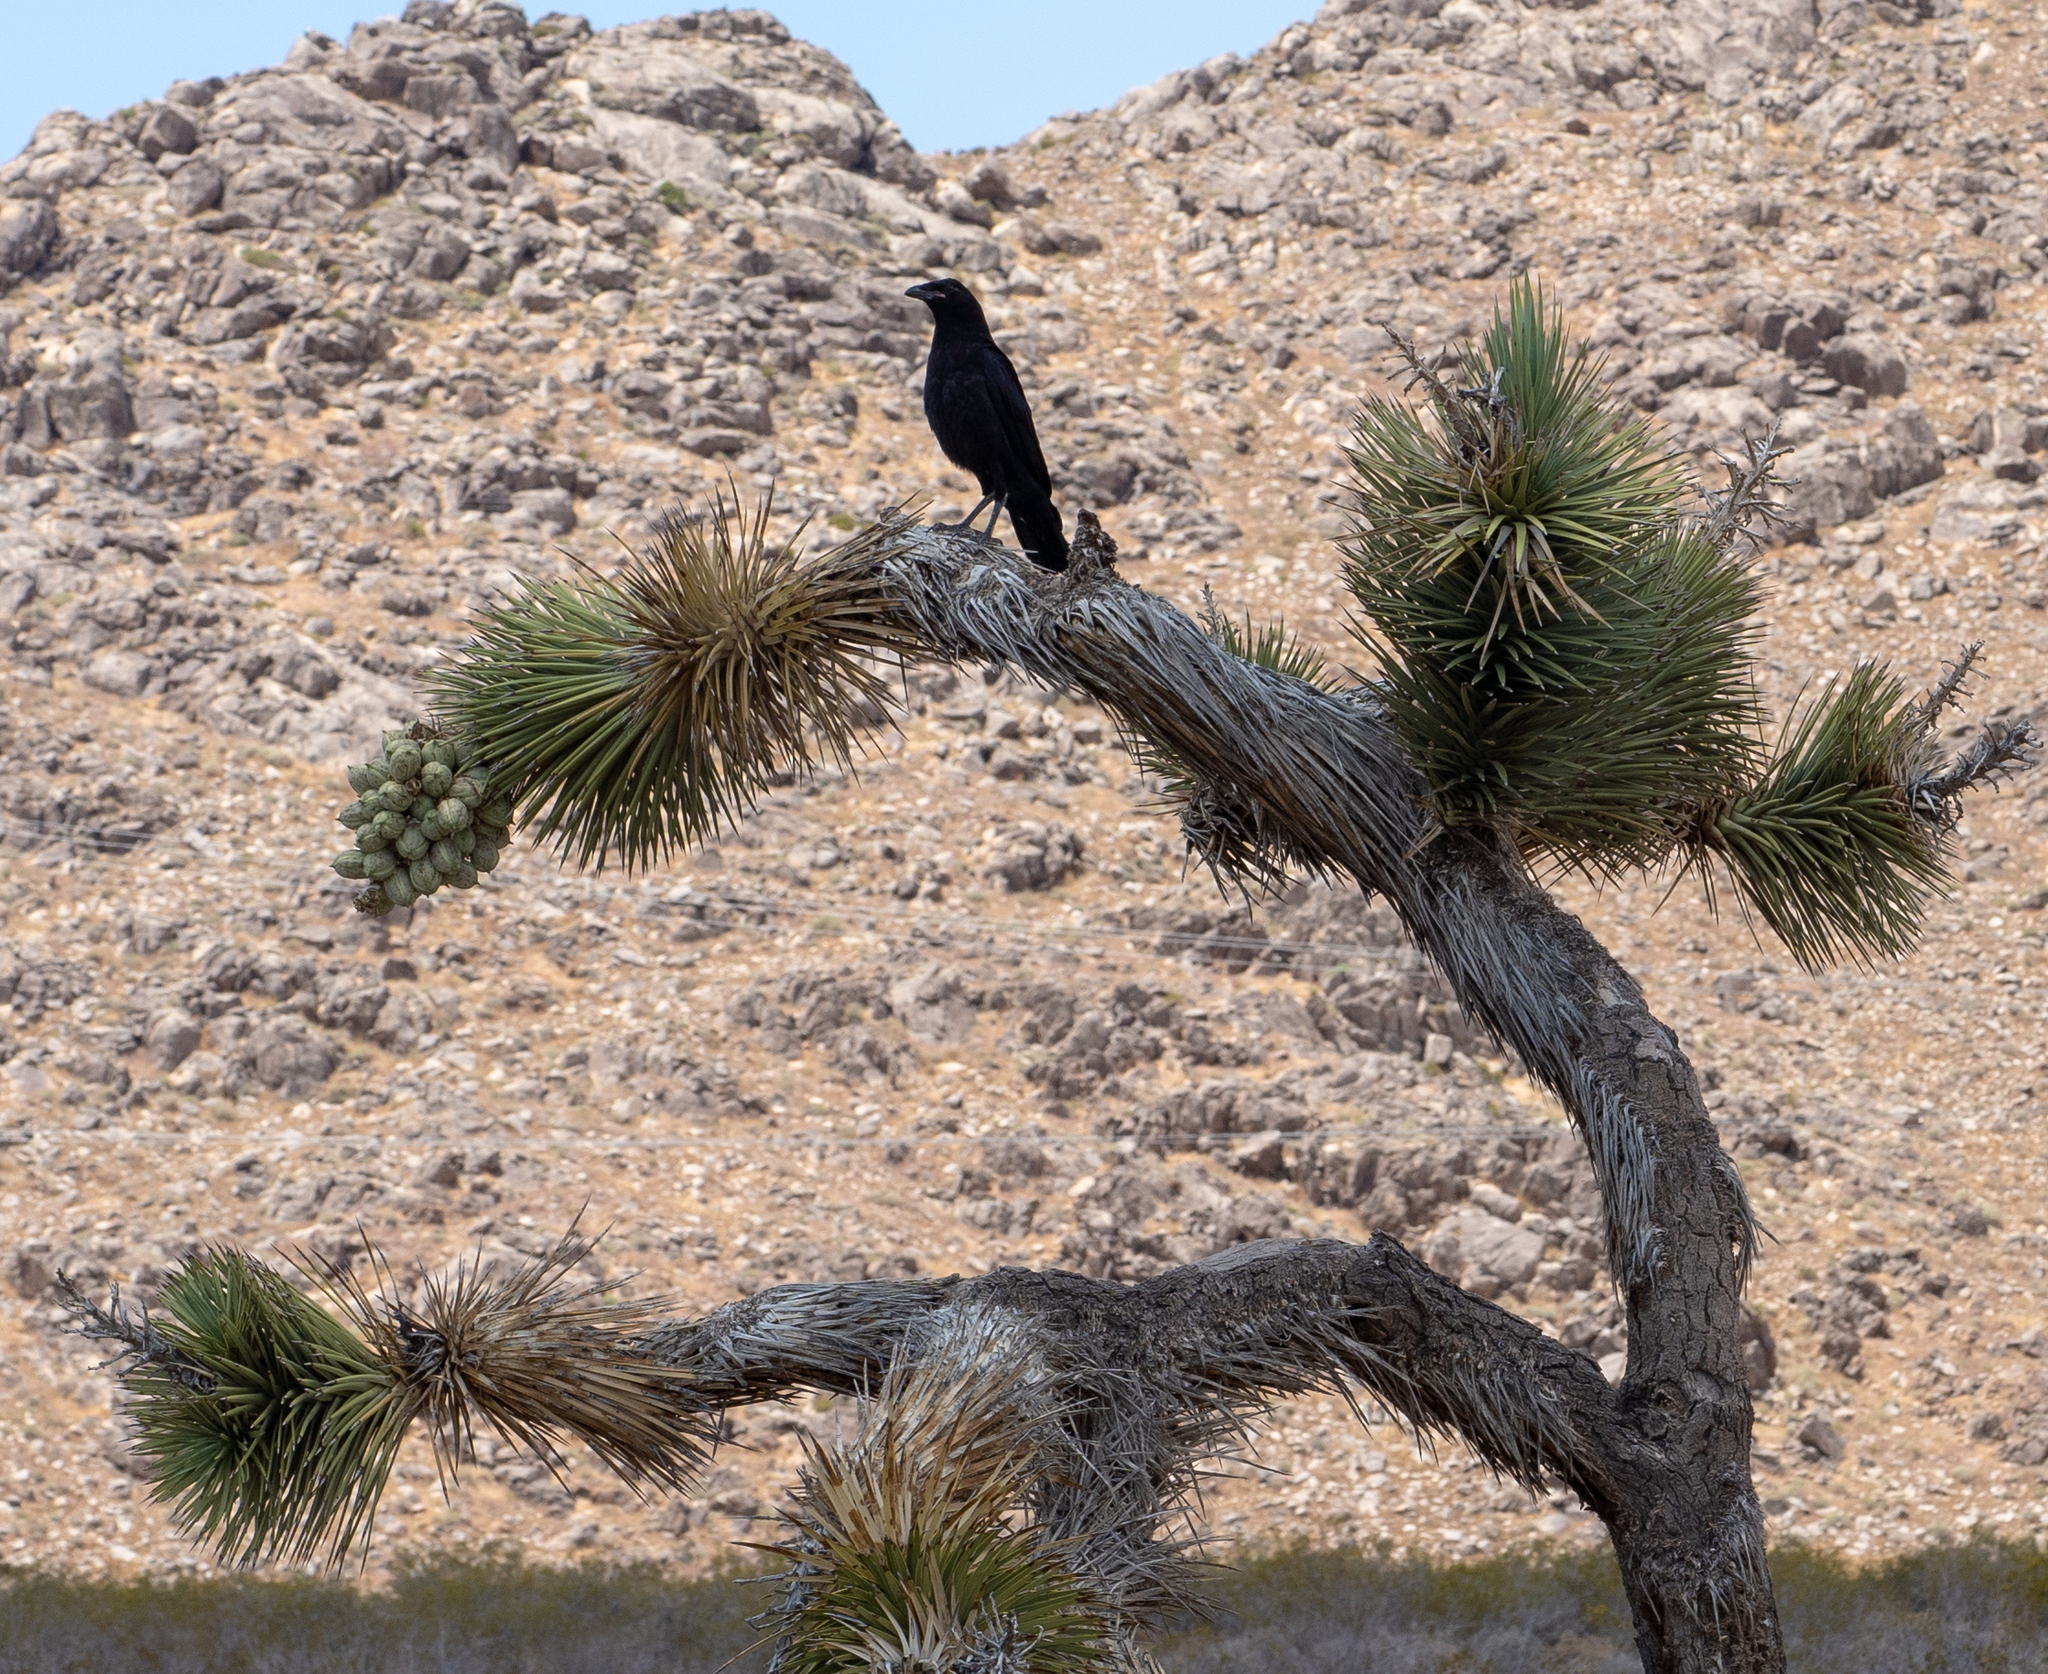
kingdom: Animalia
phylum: Chordata
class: Aves
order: Passeriformes
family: Corvidae
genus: Corvus
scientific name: Corvus corax
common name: Common raven
